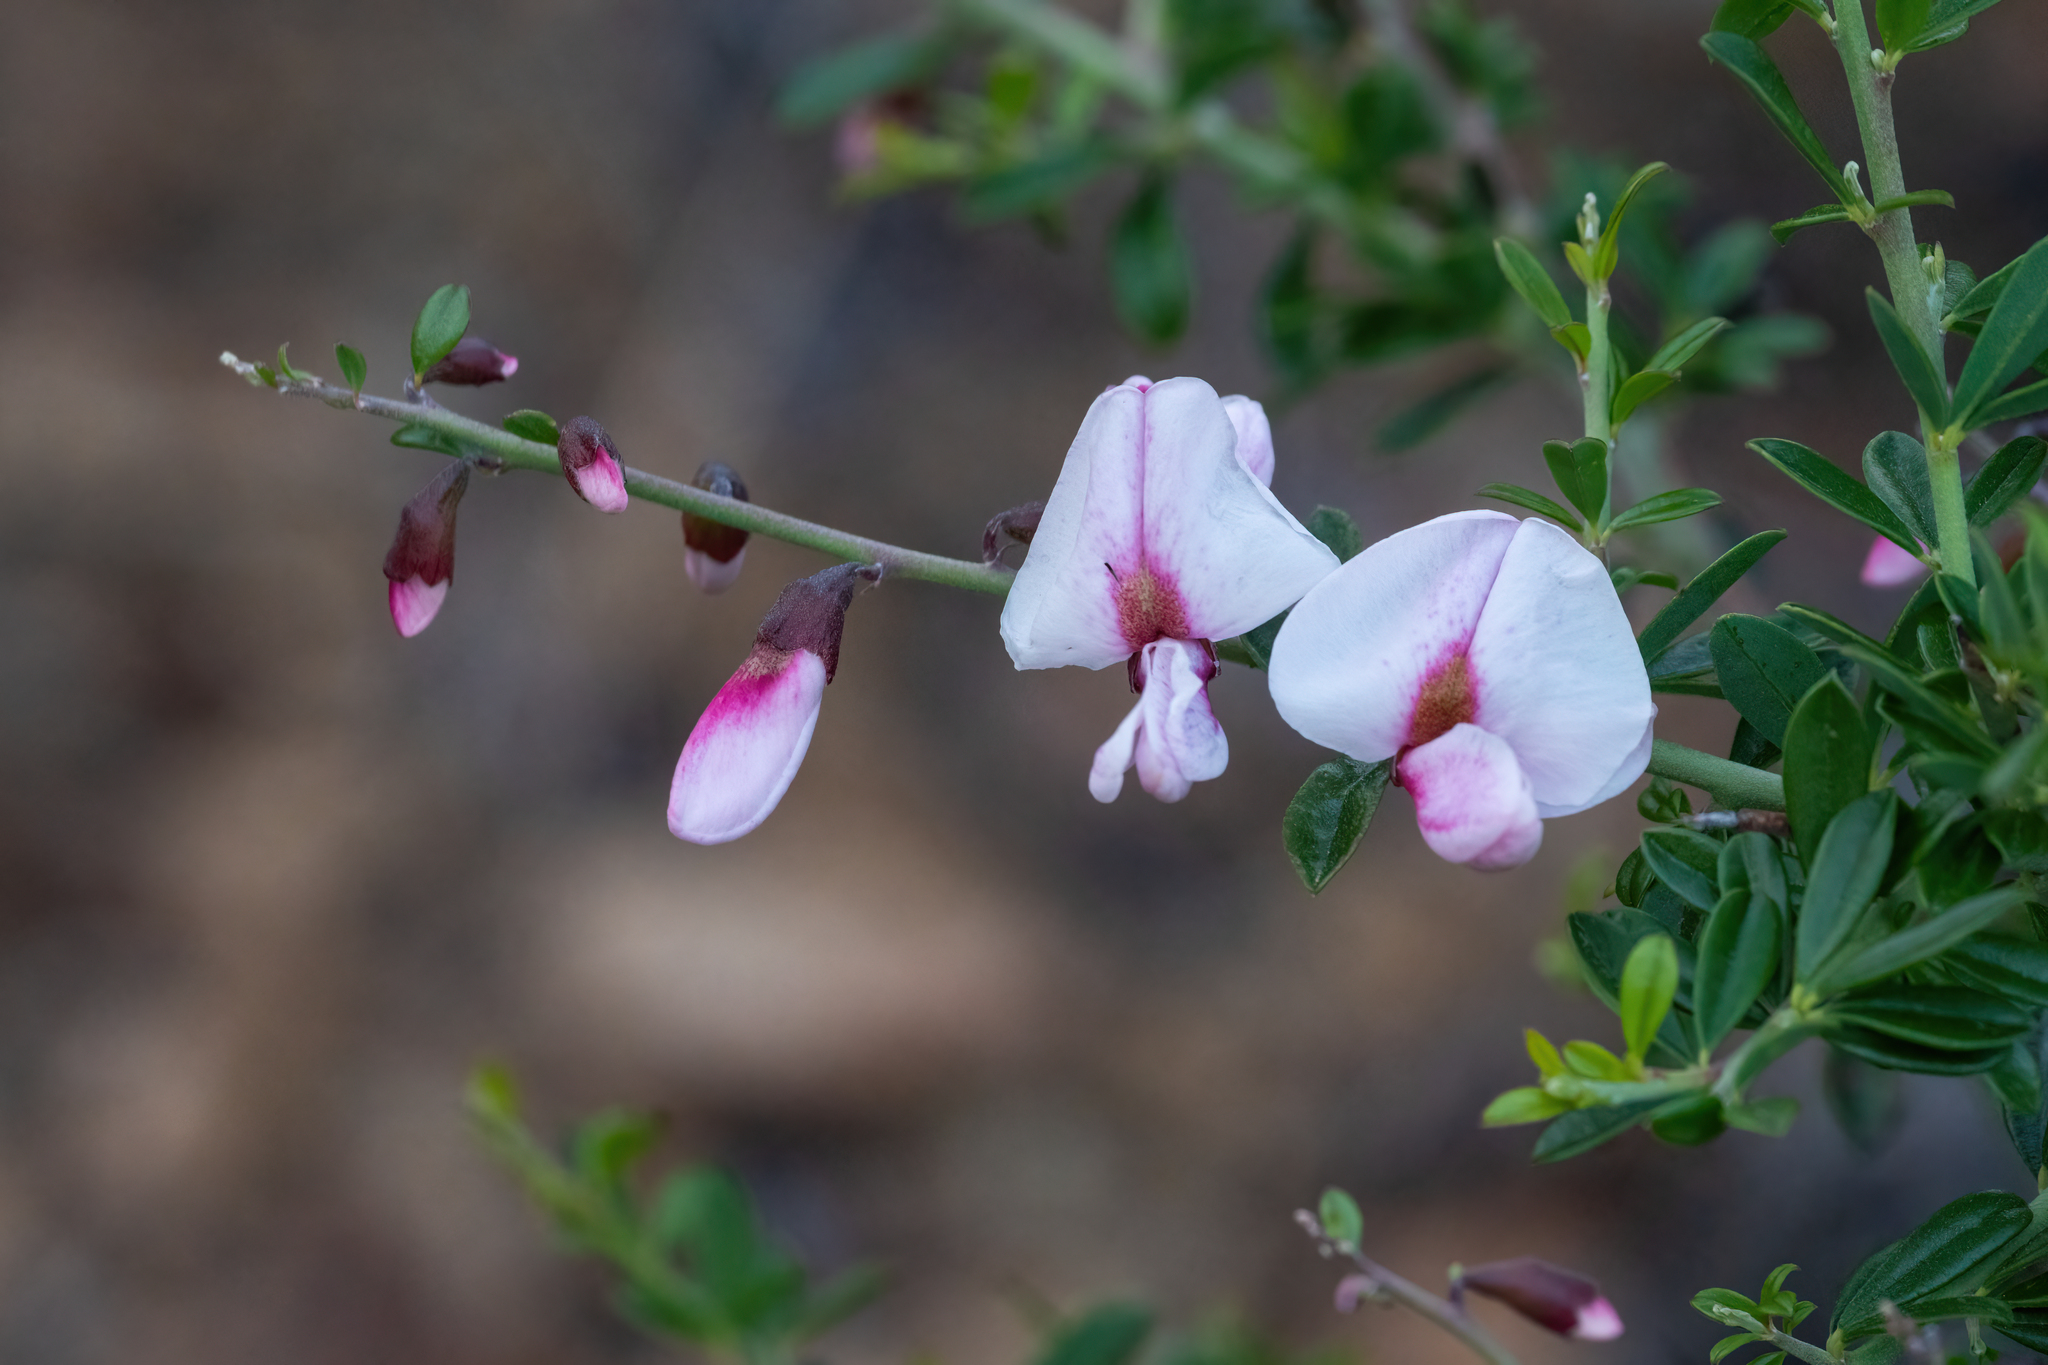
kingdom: Plantae
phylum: Tracheophyta
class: Magnoliopsida
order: Fabales
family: Fabaceae
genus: Pickeringia
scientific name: Pickeringia montana
